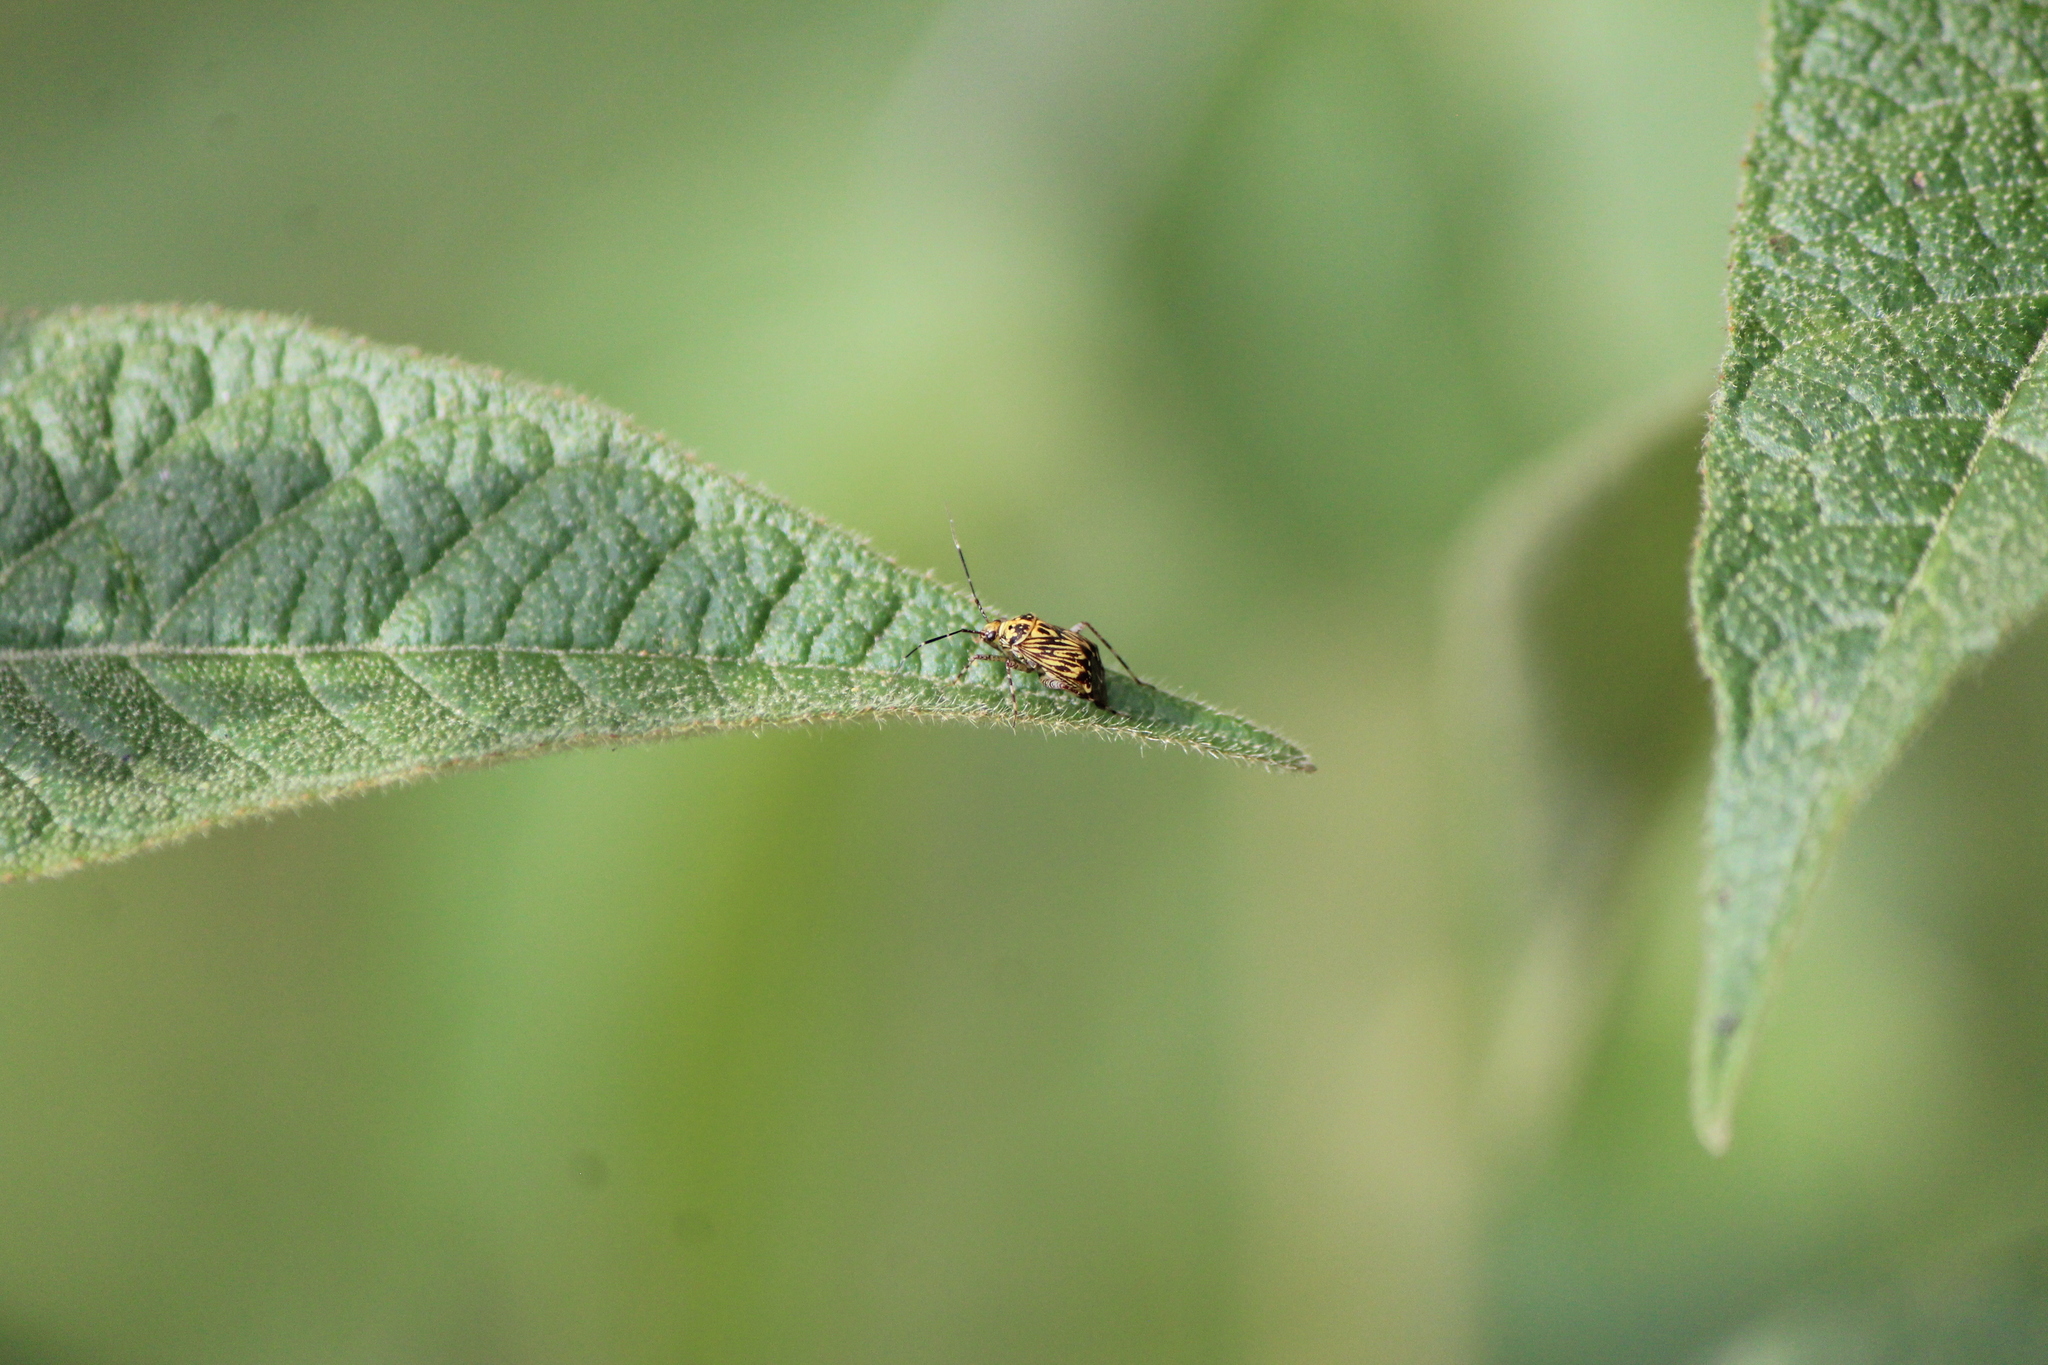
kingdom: Animalia
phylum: Arthropoda
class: Insecta
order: Hemiptera
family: Miridae
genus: Taedia
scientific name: Taedia fasciola
